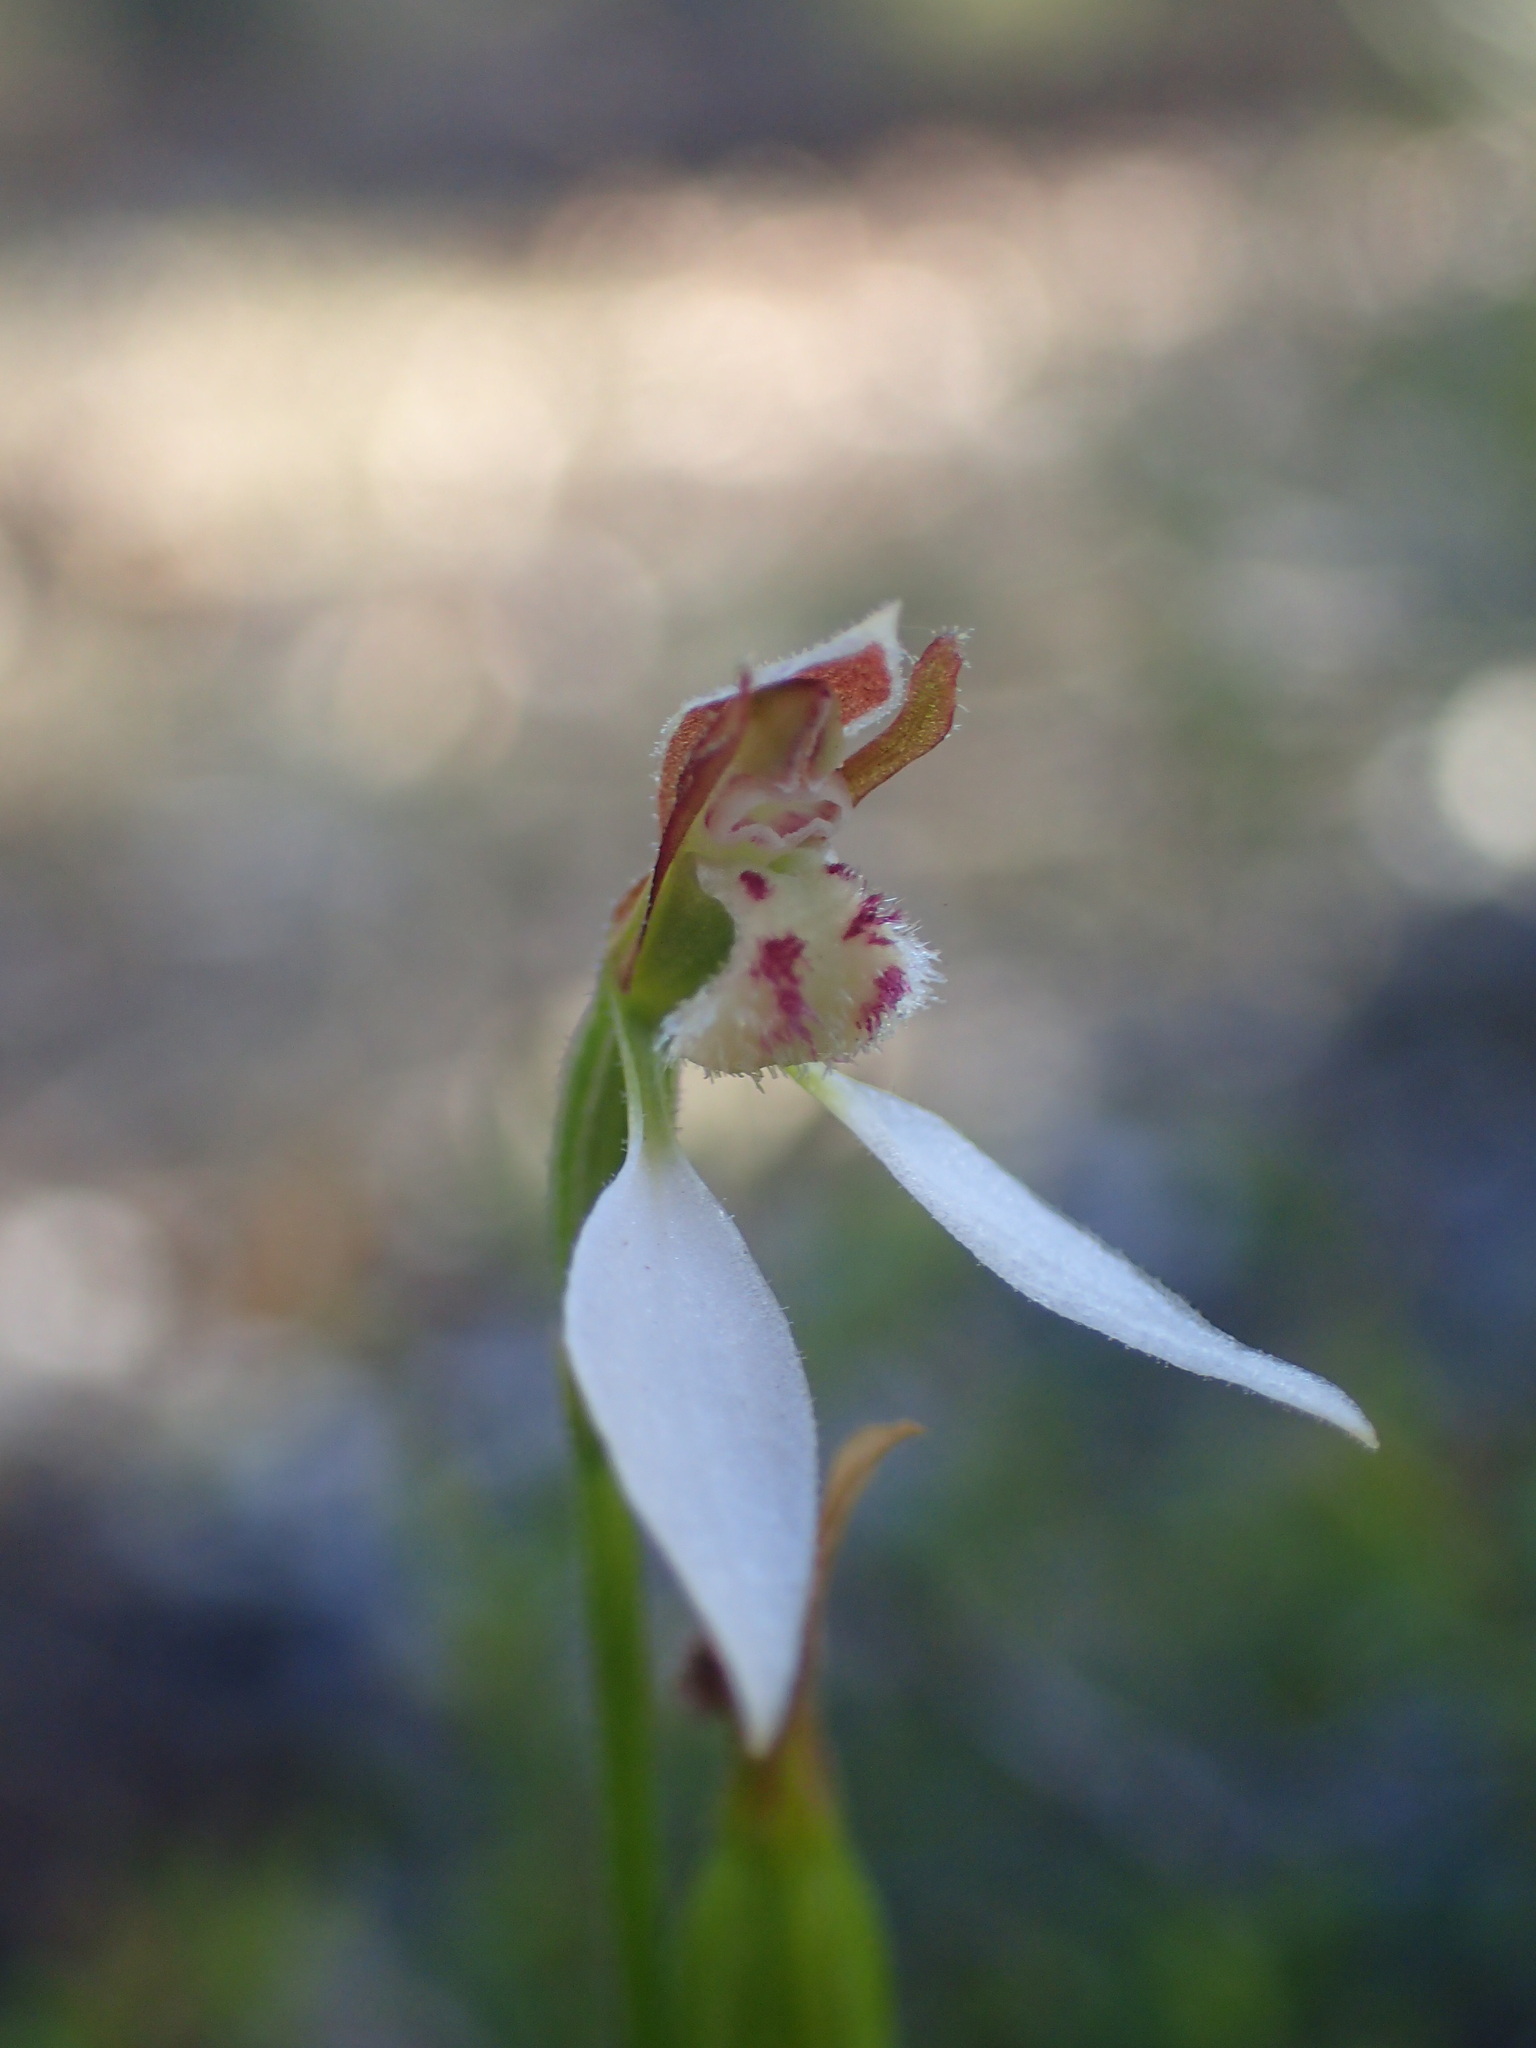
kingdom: Plantae
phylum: Tracheophyta
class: Liliopsida
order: Asparagales
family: Orchidaceae
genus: Eriochilus
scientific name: Eriochilus dilatatus
